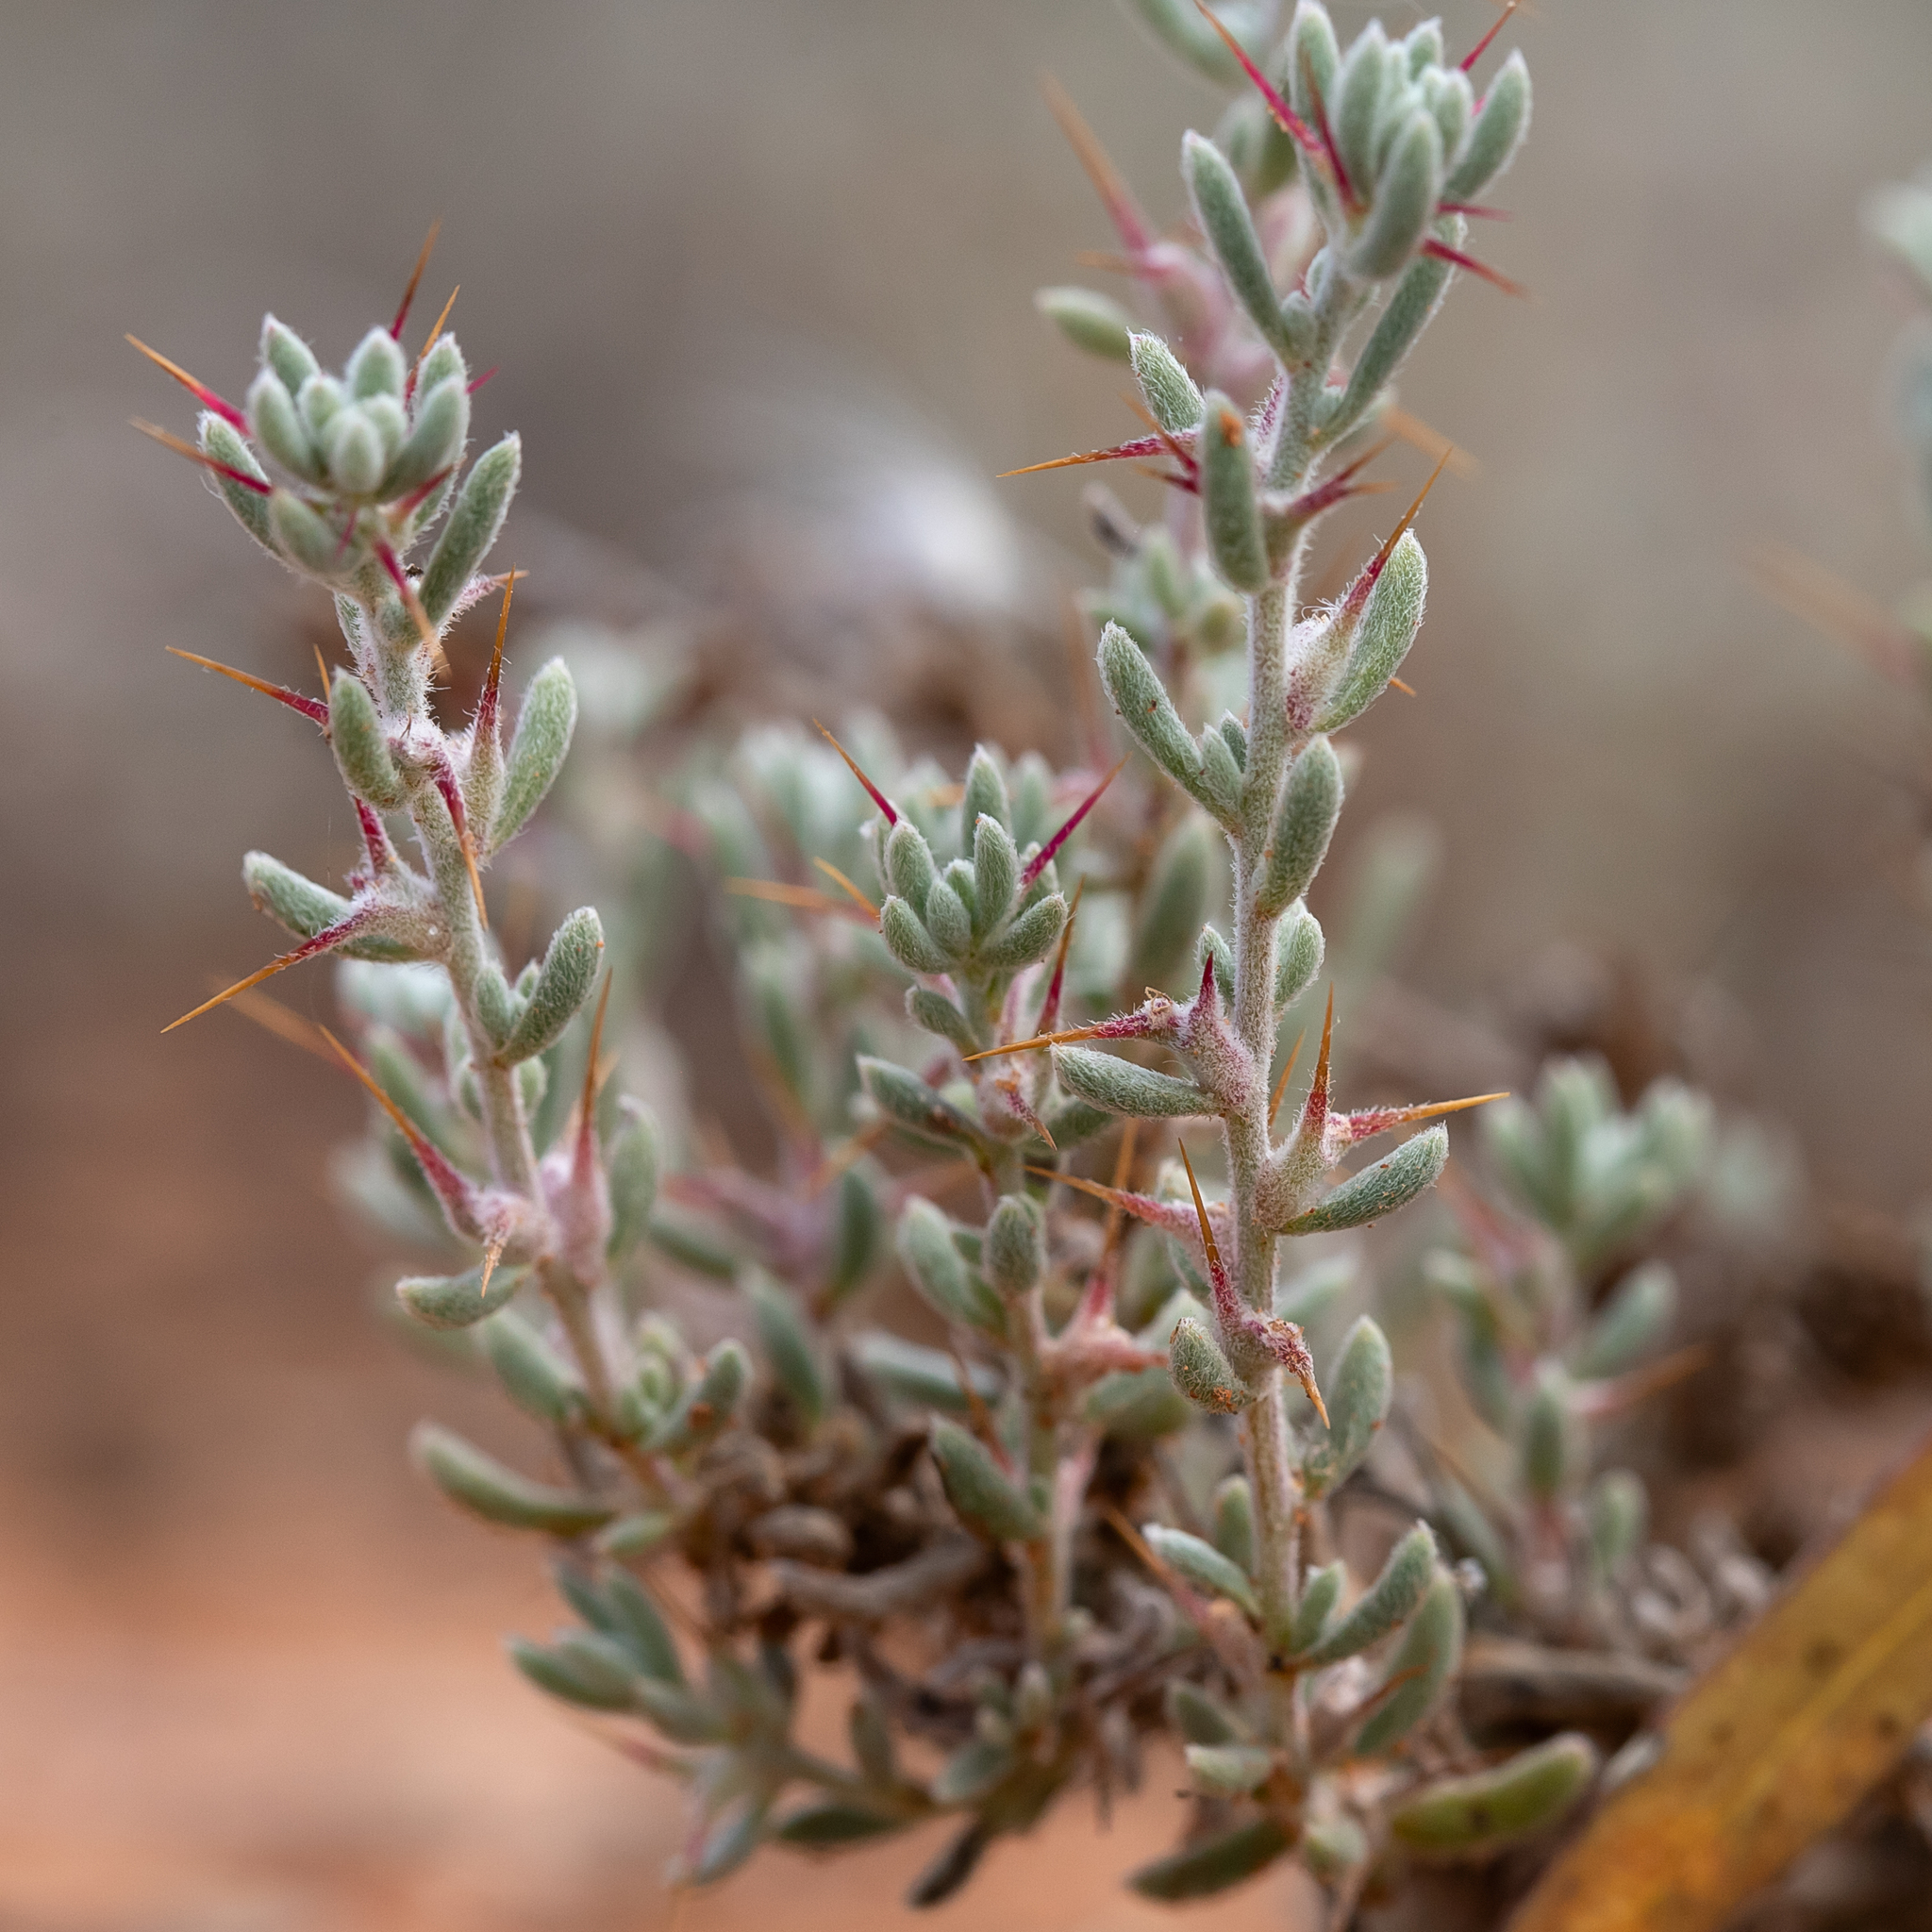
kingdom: Plantae
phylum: Tracheophyta
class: Magnoliopsida
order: Caryophyllales
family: Amaranthaceae
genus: Sclerolaena
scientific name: Sclerolaena obliquicuspis
